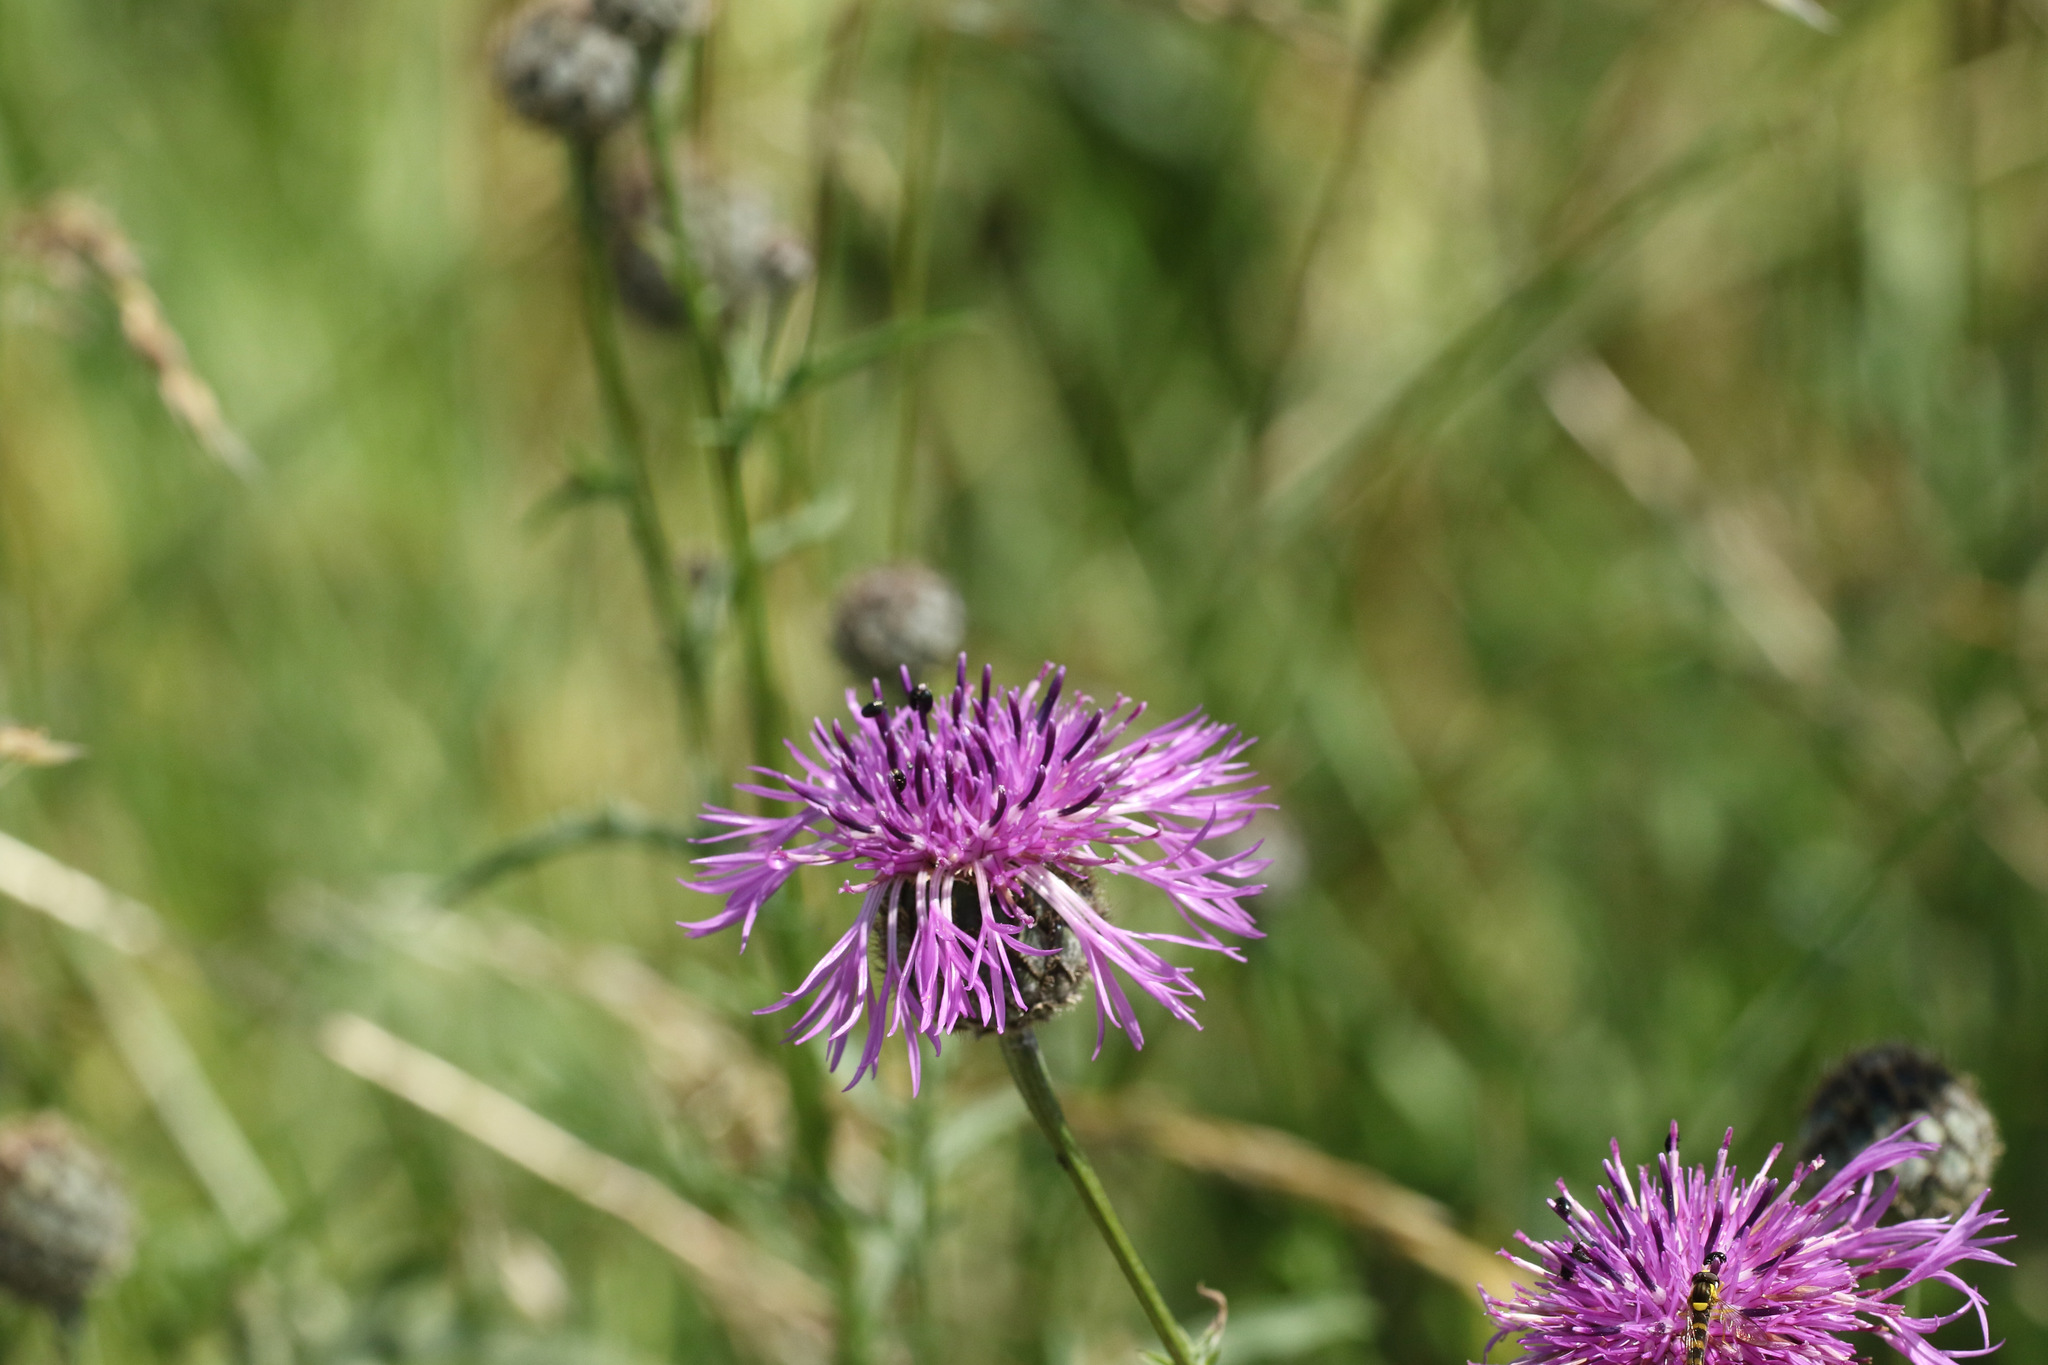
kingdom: Plantae
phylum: Tracheophyta
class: Magnoliopsida
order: Asterales
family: Asteraceae
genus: Centaurea
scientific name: Centaurea scabiosa
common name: Greater knapweed
